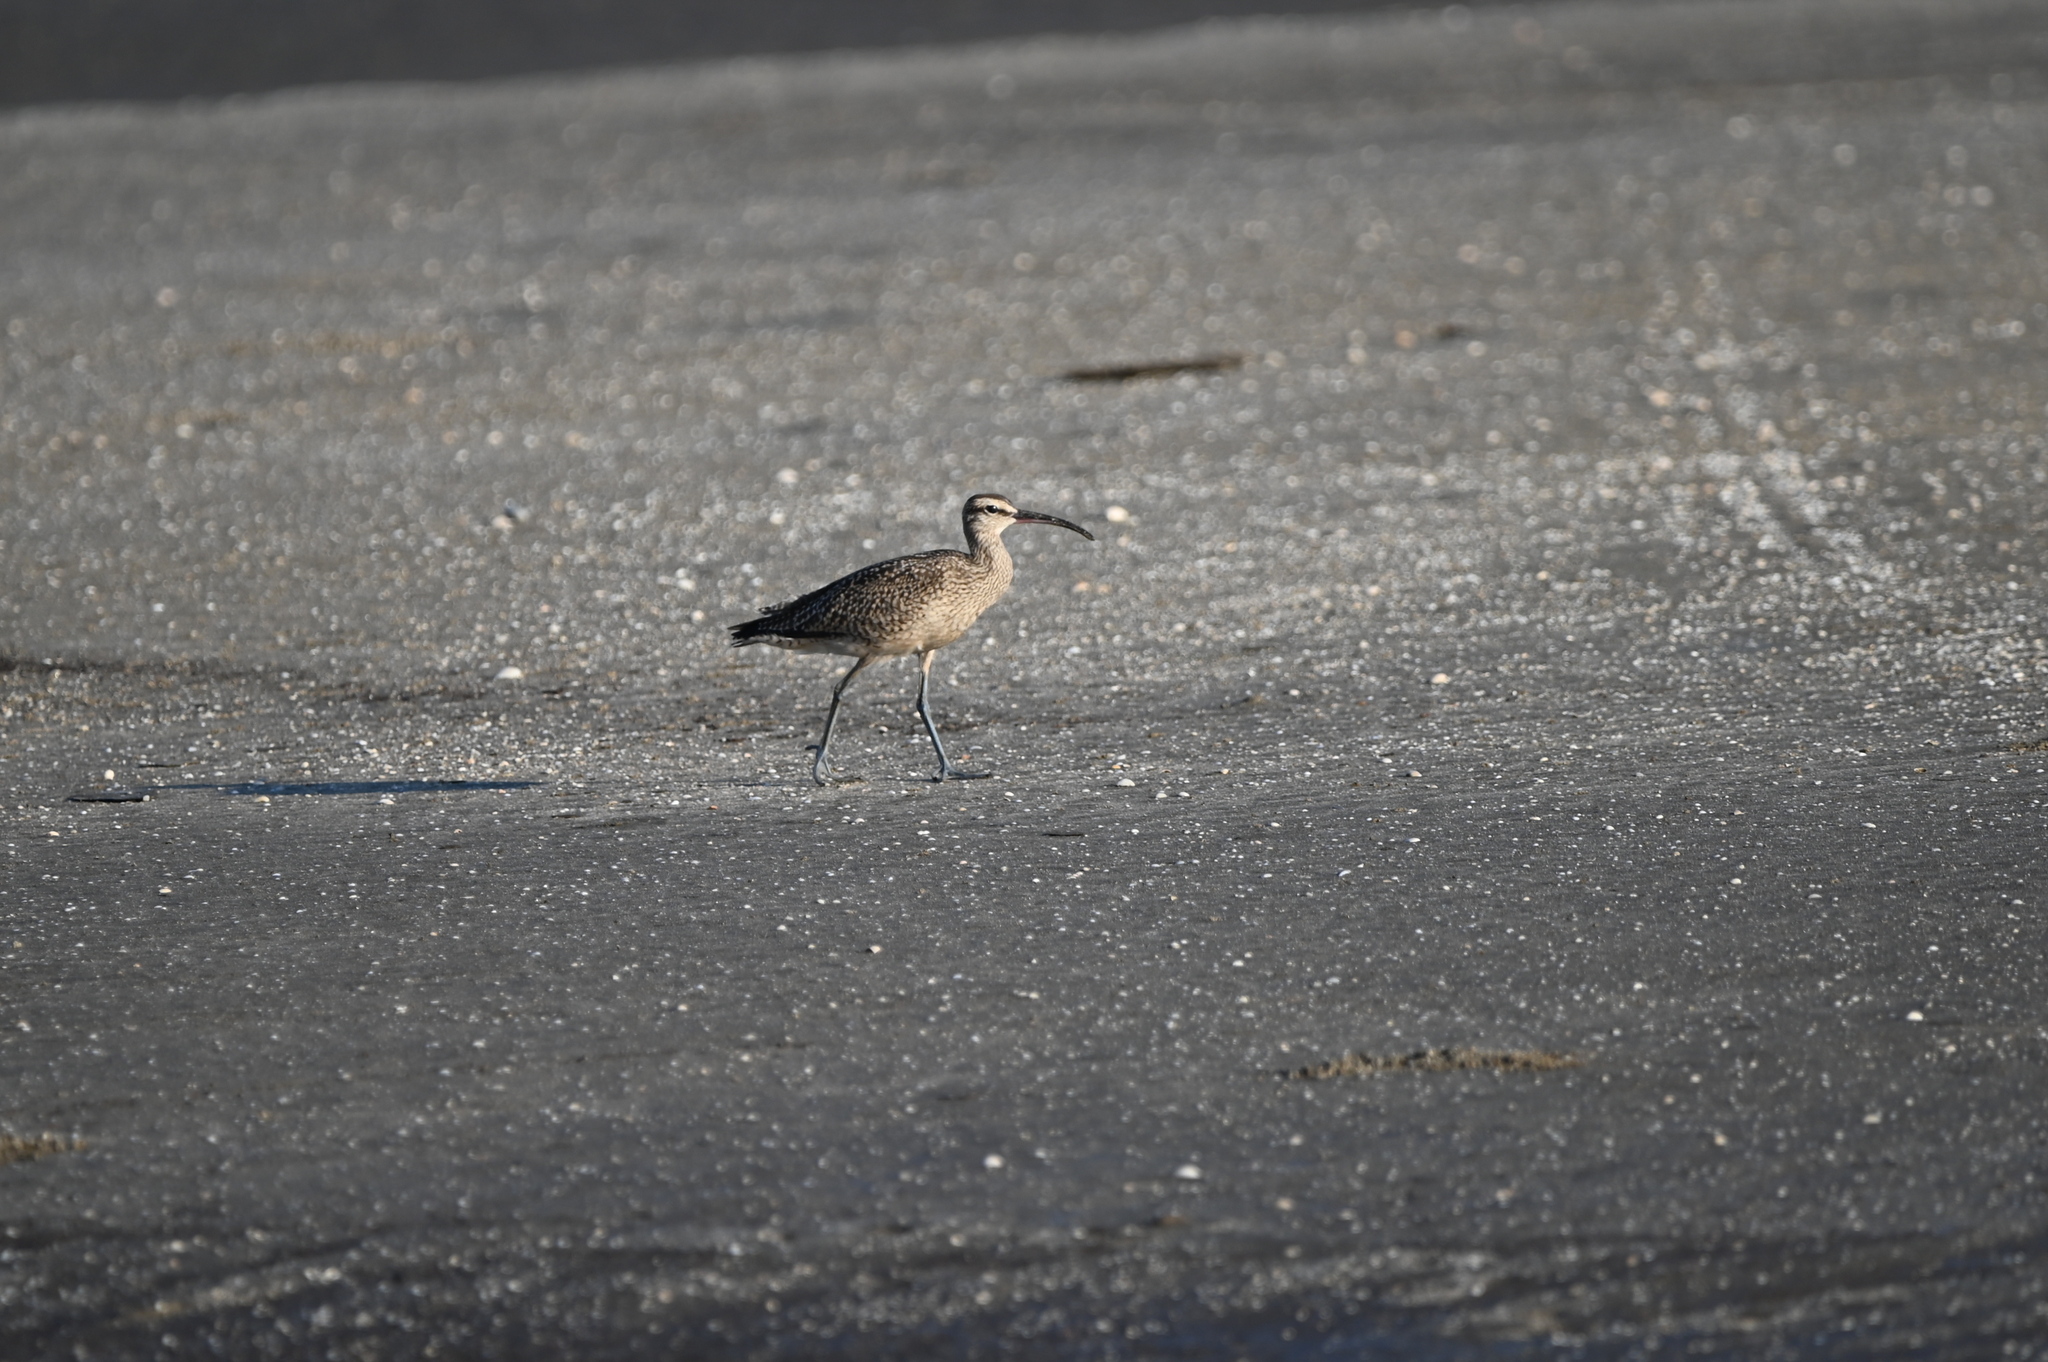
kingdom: Animalia
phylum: Chordata
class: Aves
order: Charadriiformes
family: Scolopacidae
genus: Numenius
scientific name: Numenius phaeopus
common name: Whimbrel
